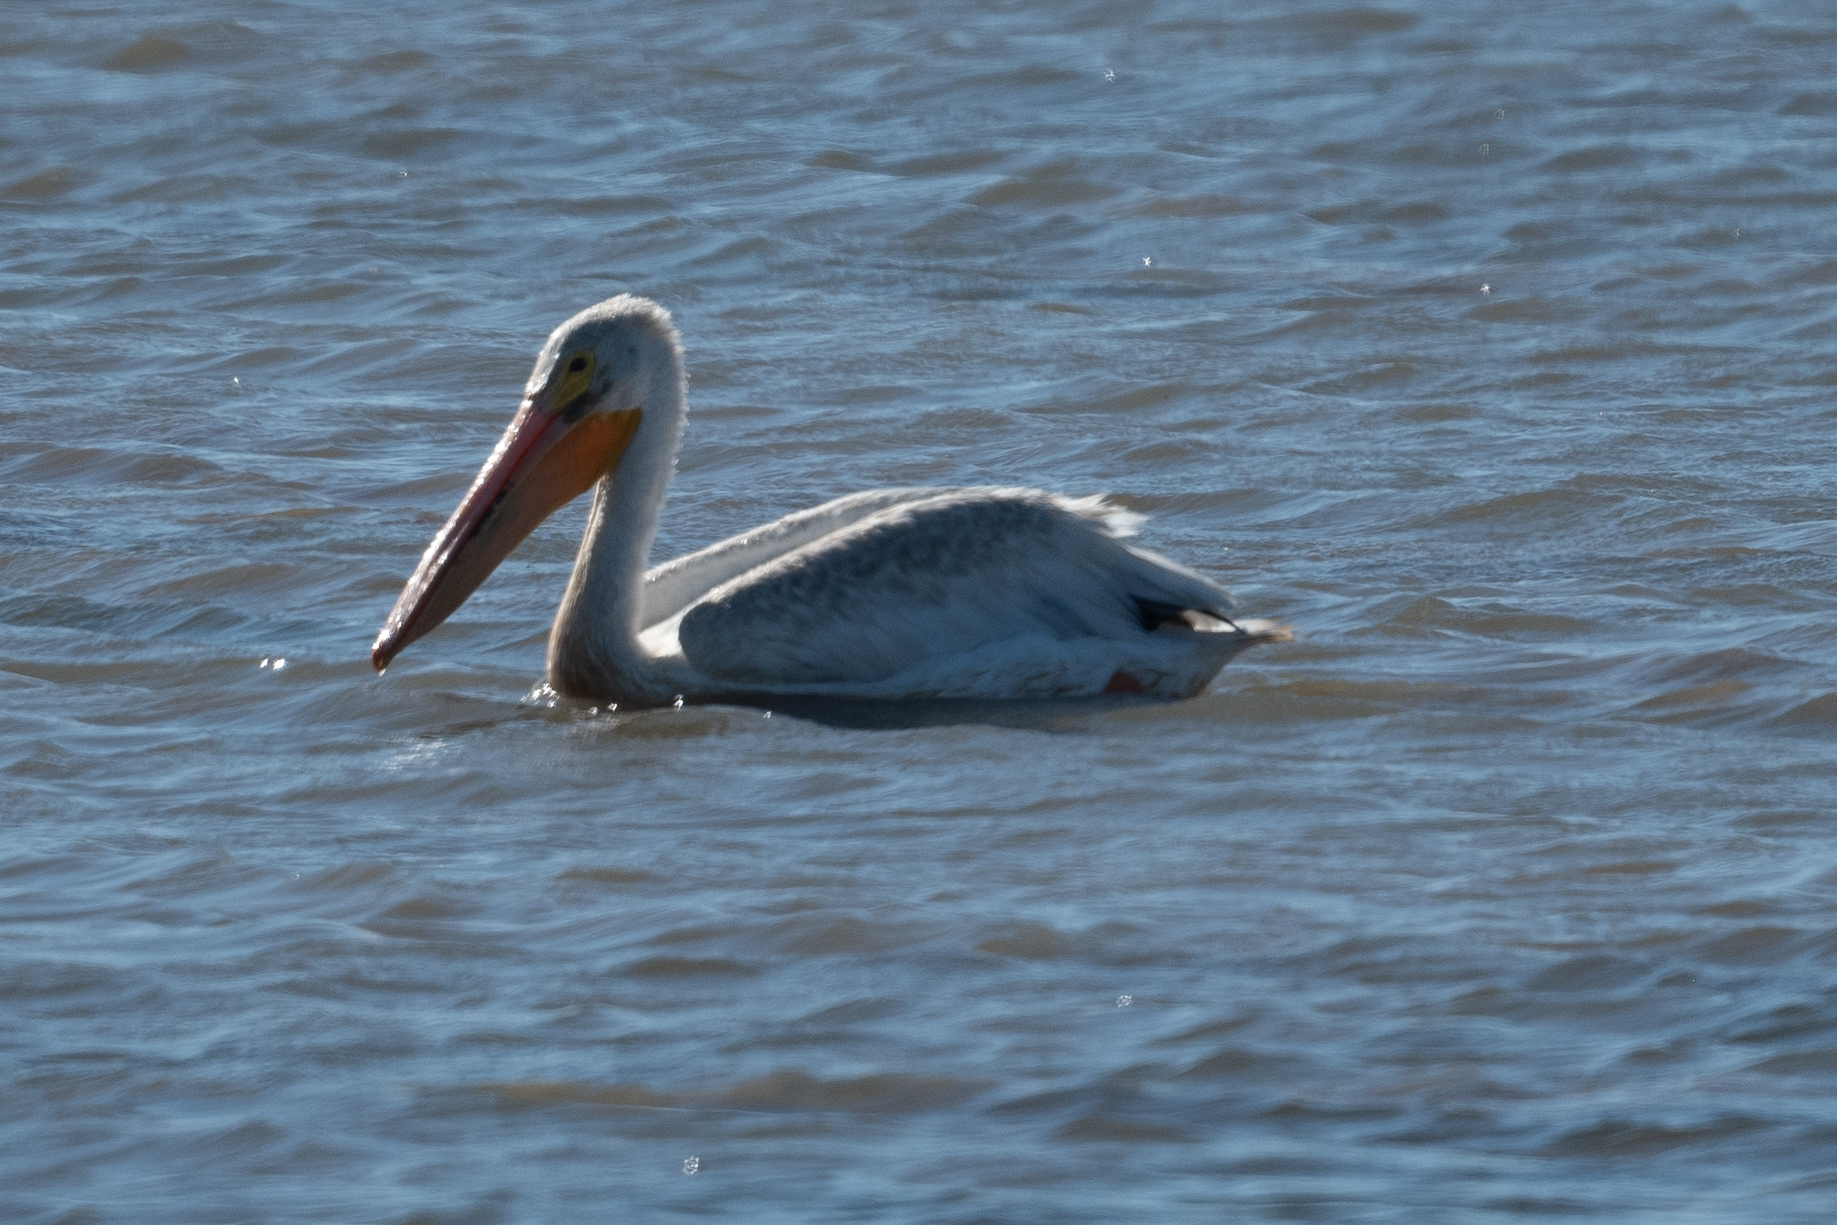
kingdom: Animalia
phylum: Chordata
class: Aves
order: Pelecaniformes
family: Pelecanidae
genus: Pelecanus
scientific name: Pelecanus erythrorhynchos
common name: American white pelican
